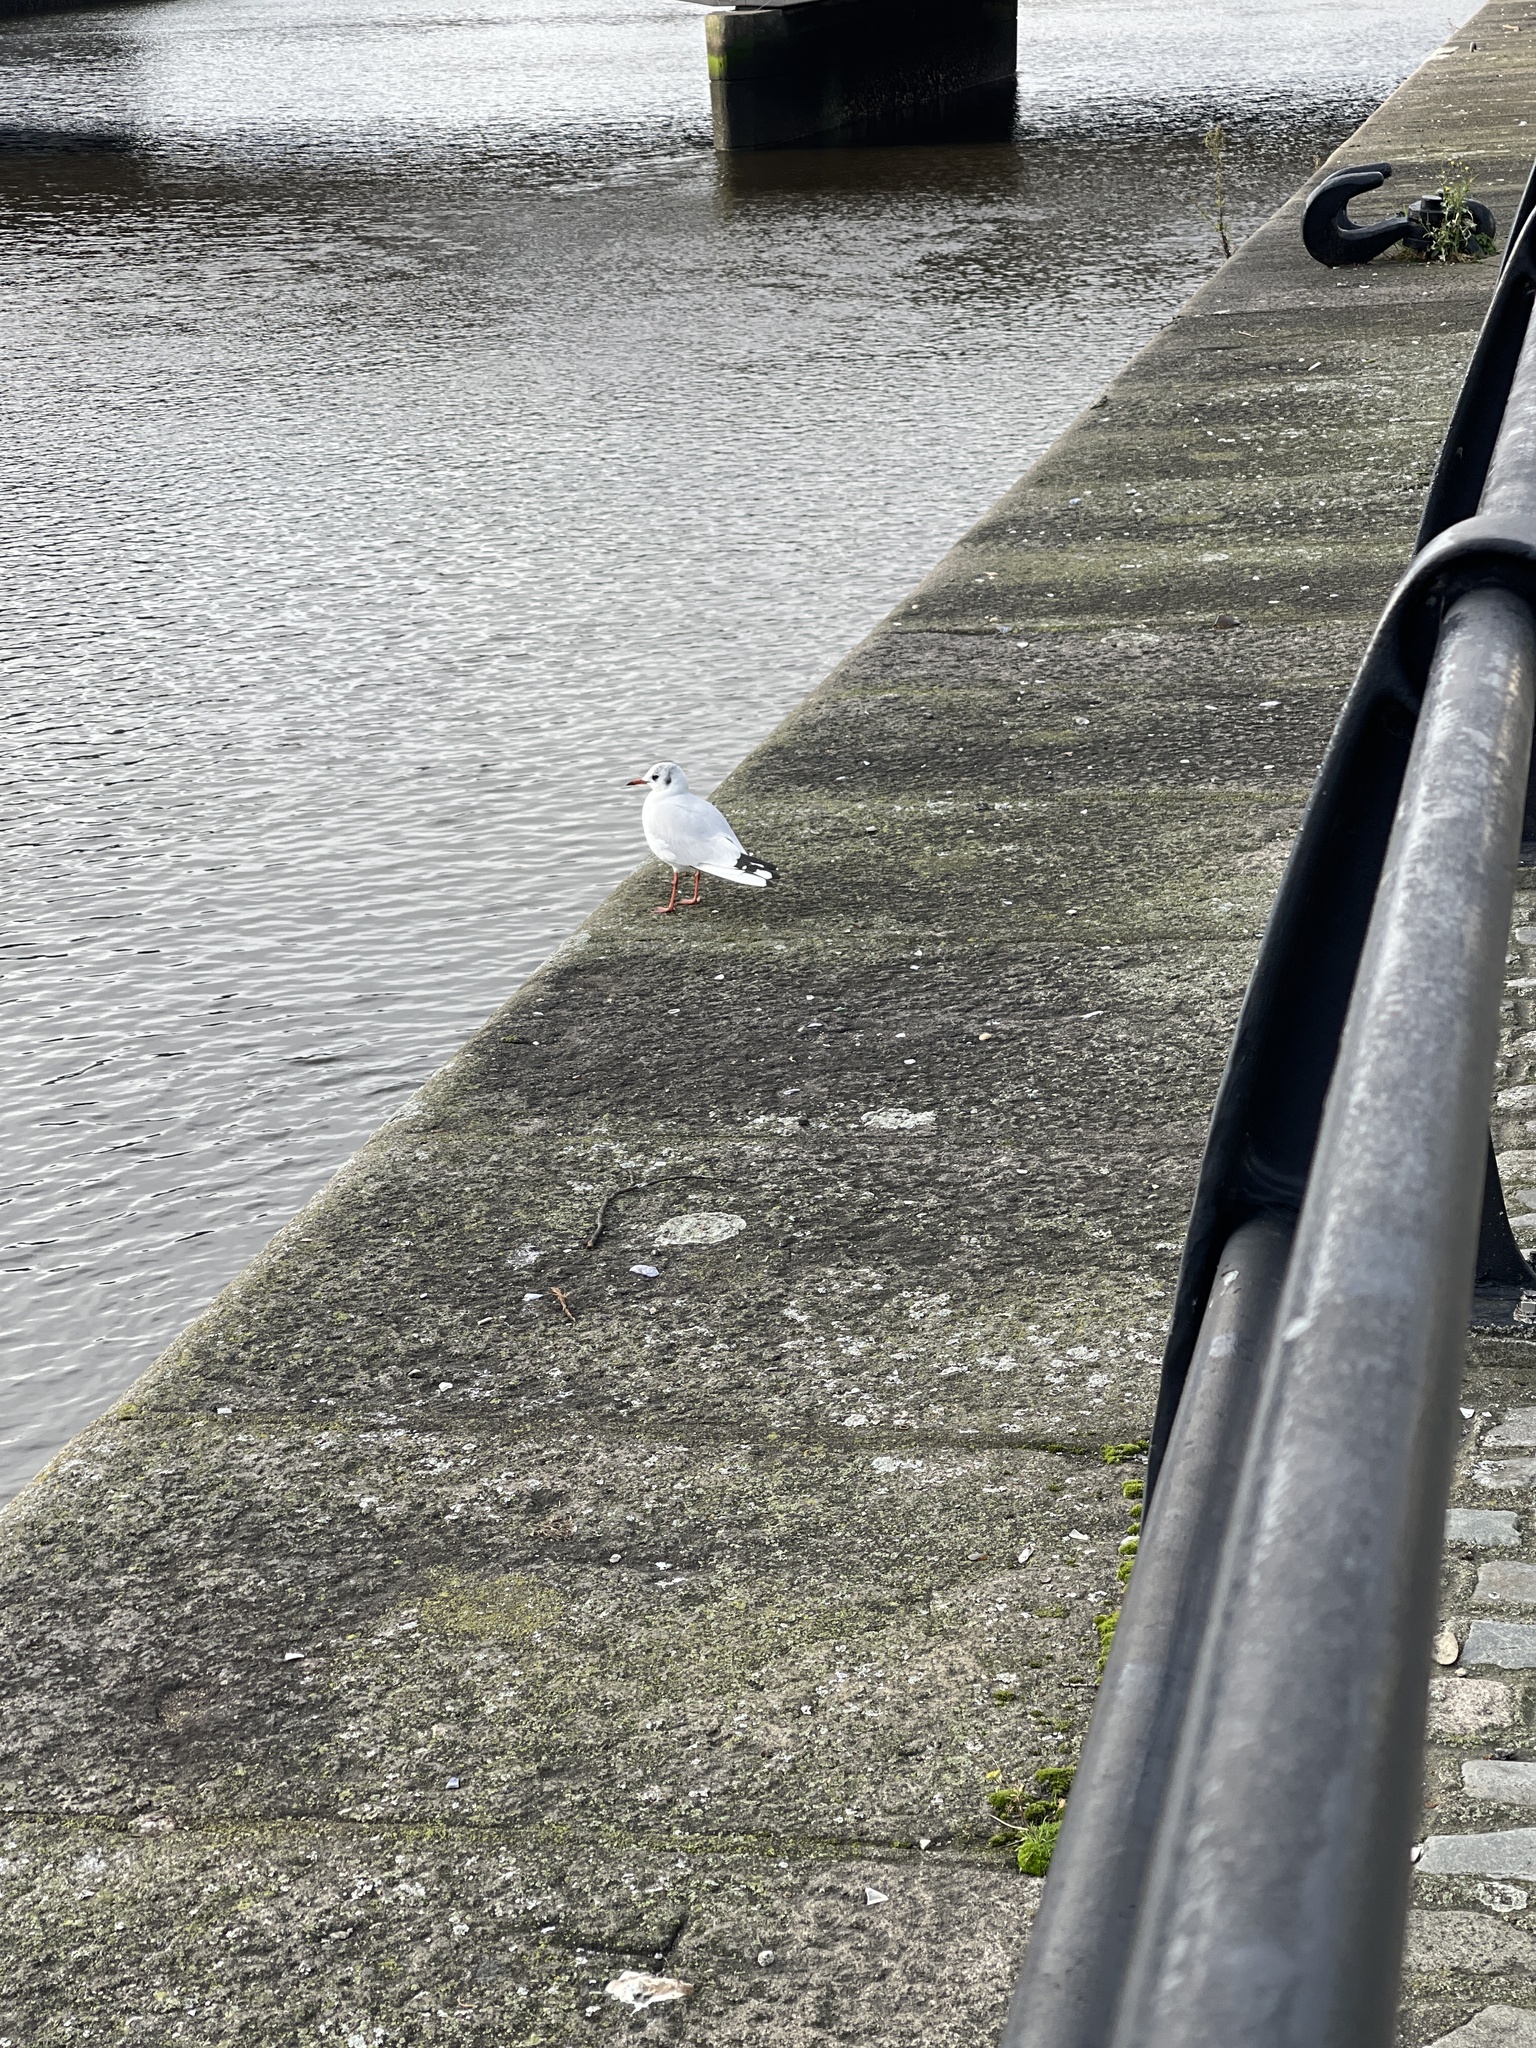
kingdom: Animalia
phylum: Chordata
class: Aves
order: Charadriiformes
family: Laridae
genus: Chroicocephalus
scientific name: Chroicocephalus ridibundus
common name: Black-headed gull
